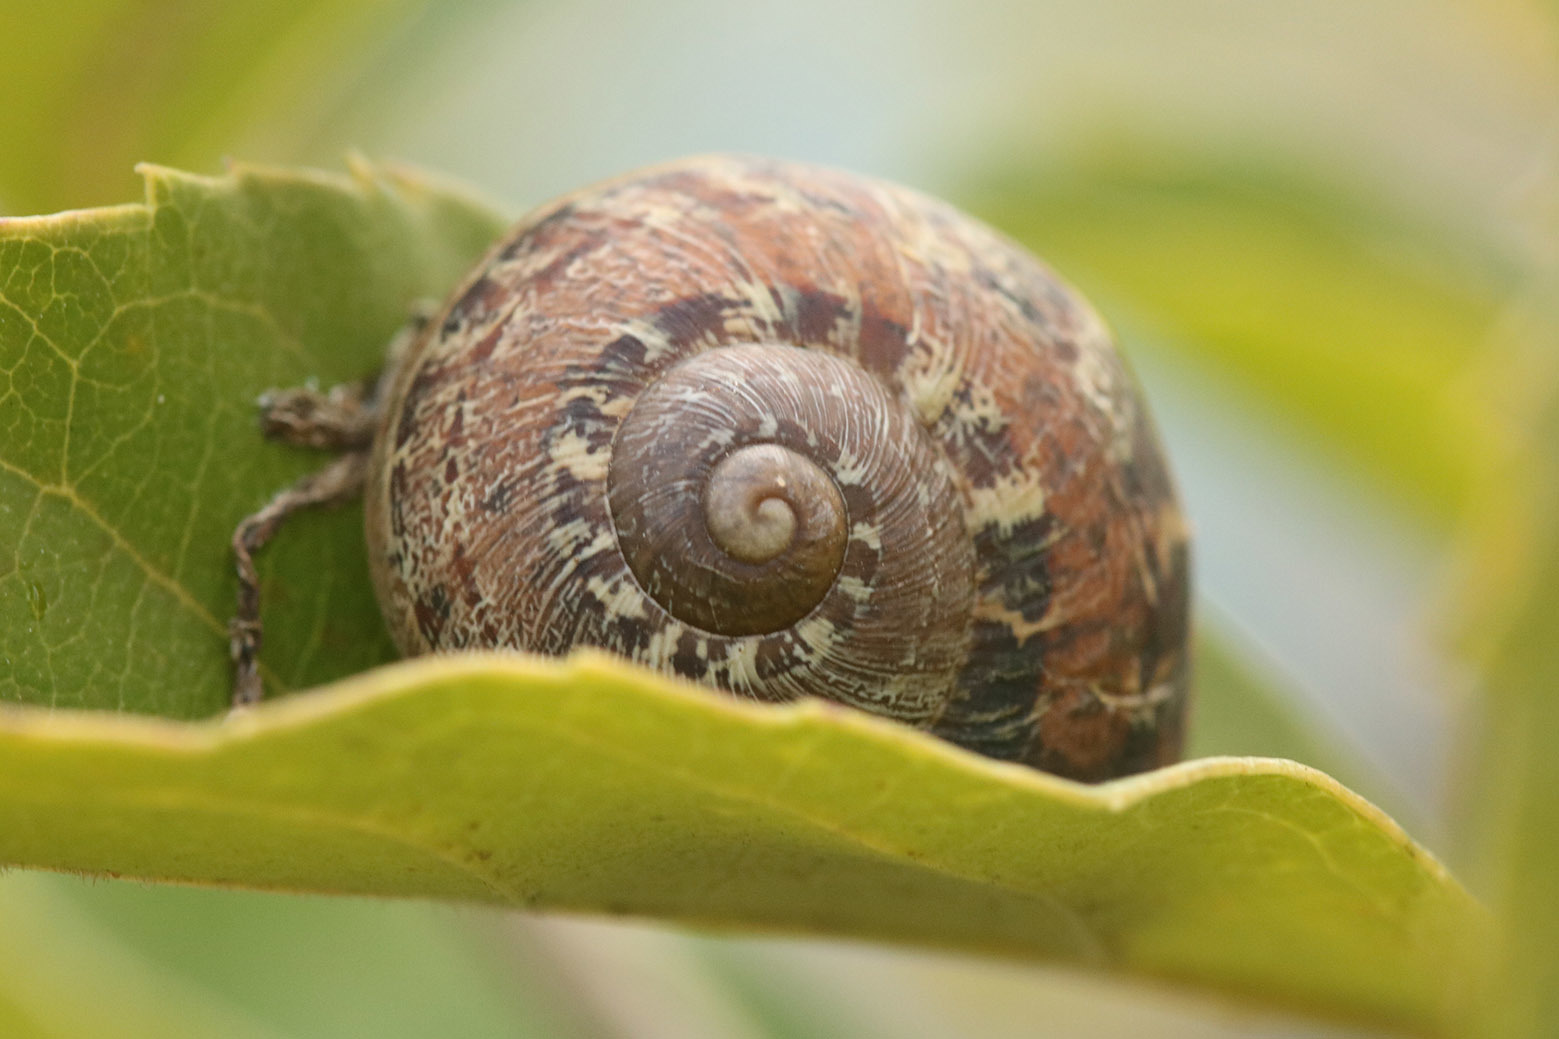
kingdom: Animalia
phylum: Mollusca
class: Gastropoda
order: Stylommatophora
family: Helicidae
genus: Cornu
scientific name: Cornu aspersum
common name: Brown garden snail
